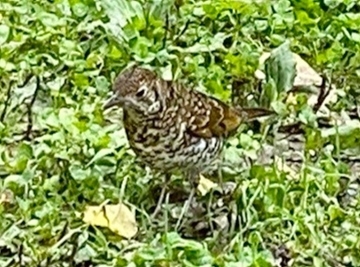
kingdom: Animalia
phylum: Chordata
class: Aves
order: Passeriformes
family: Turdidae
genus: Zoothera
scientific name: Zoothera lunulata
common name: Bassian thrush
